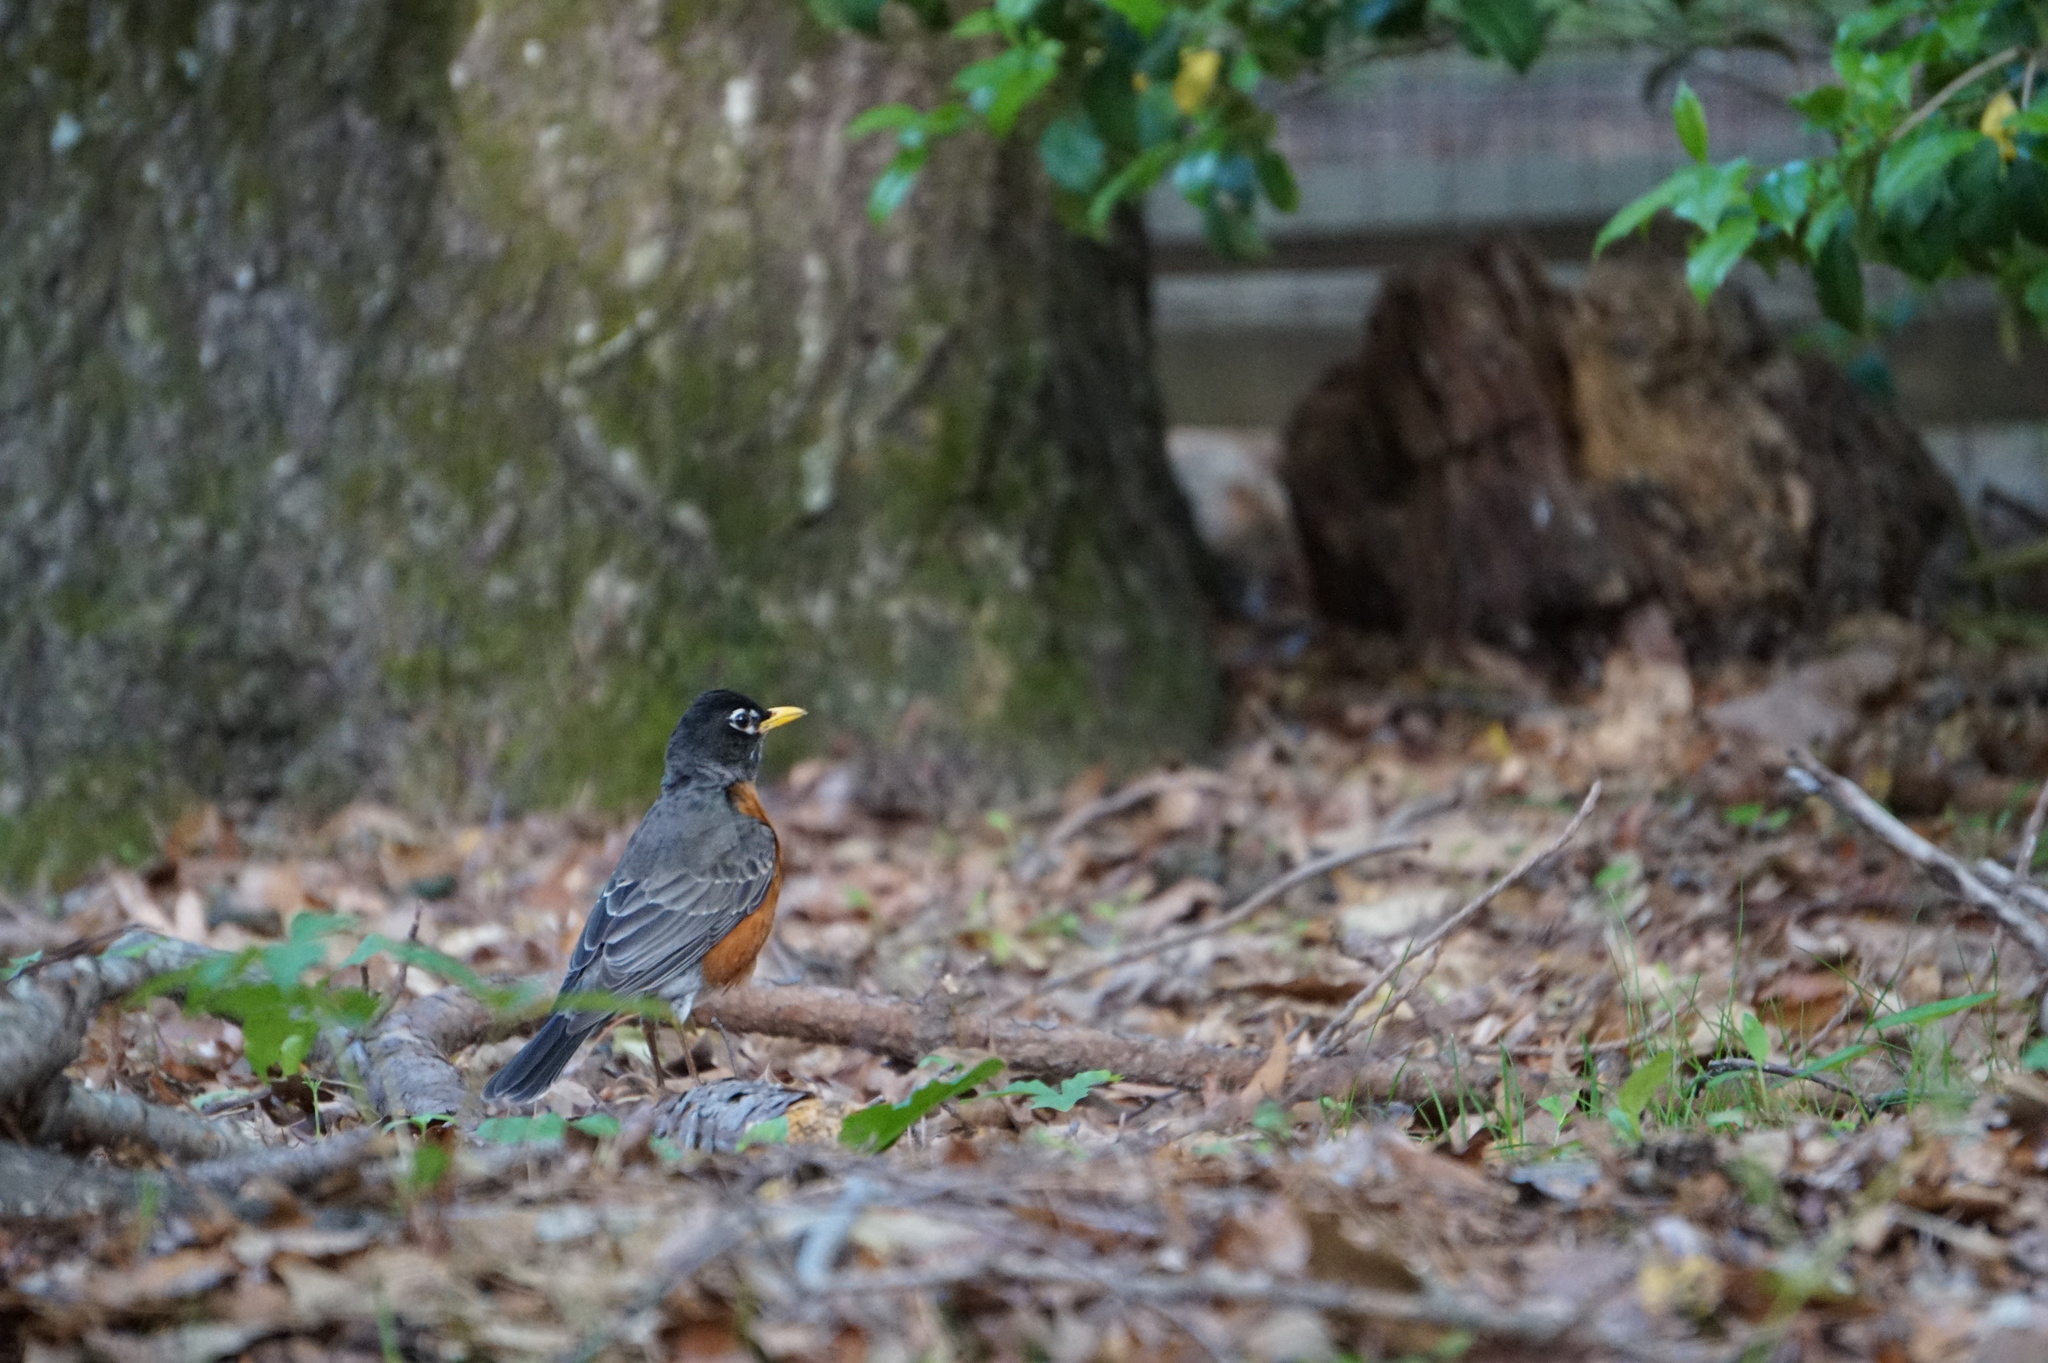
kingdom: Animalia
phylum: Chordata
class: Aves
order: Passeriformes
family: Turdidae
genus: Turdus
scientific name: Turdus migratorius
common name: American robin
